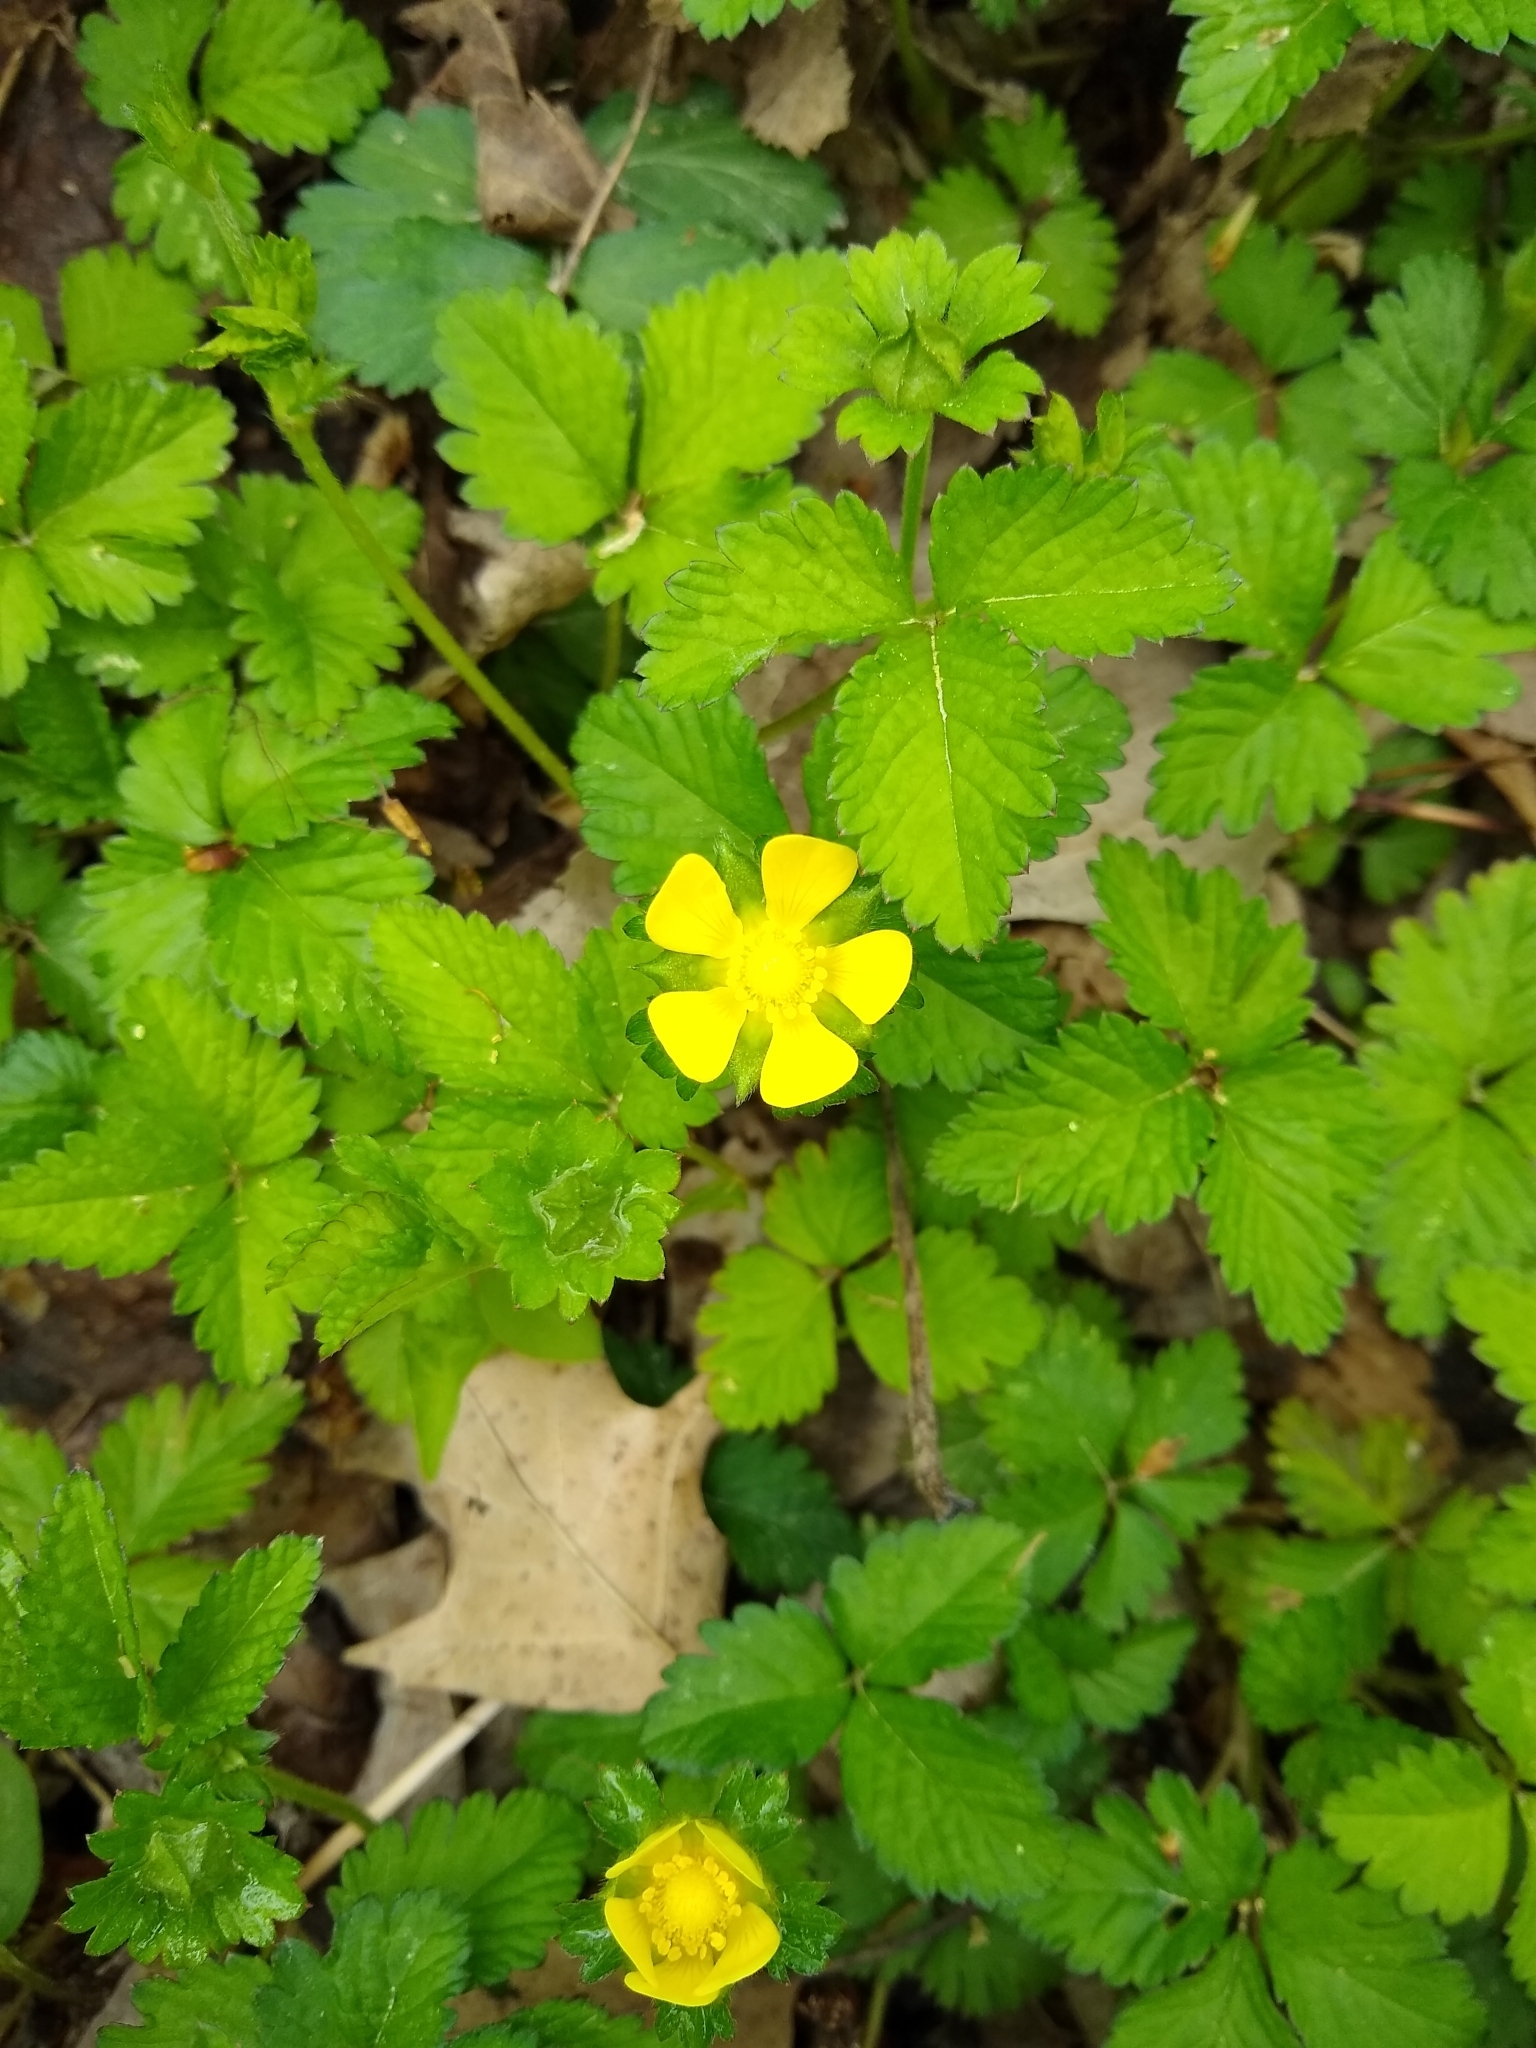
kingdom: Plantae
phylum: Tracheophyta
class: Magnoliopsida
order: Rosales
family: Rosaceae
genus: Potentilla
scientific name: Potentilla indica
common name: Yellow-flowered strawberry
